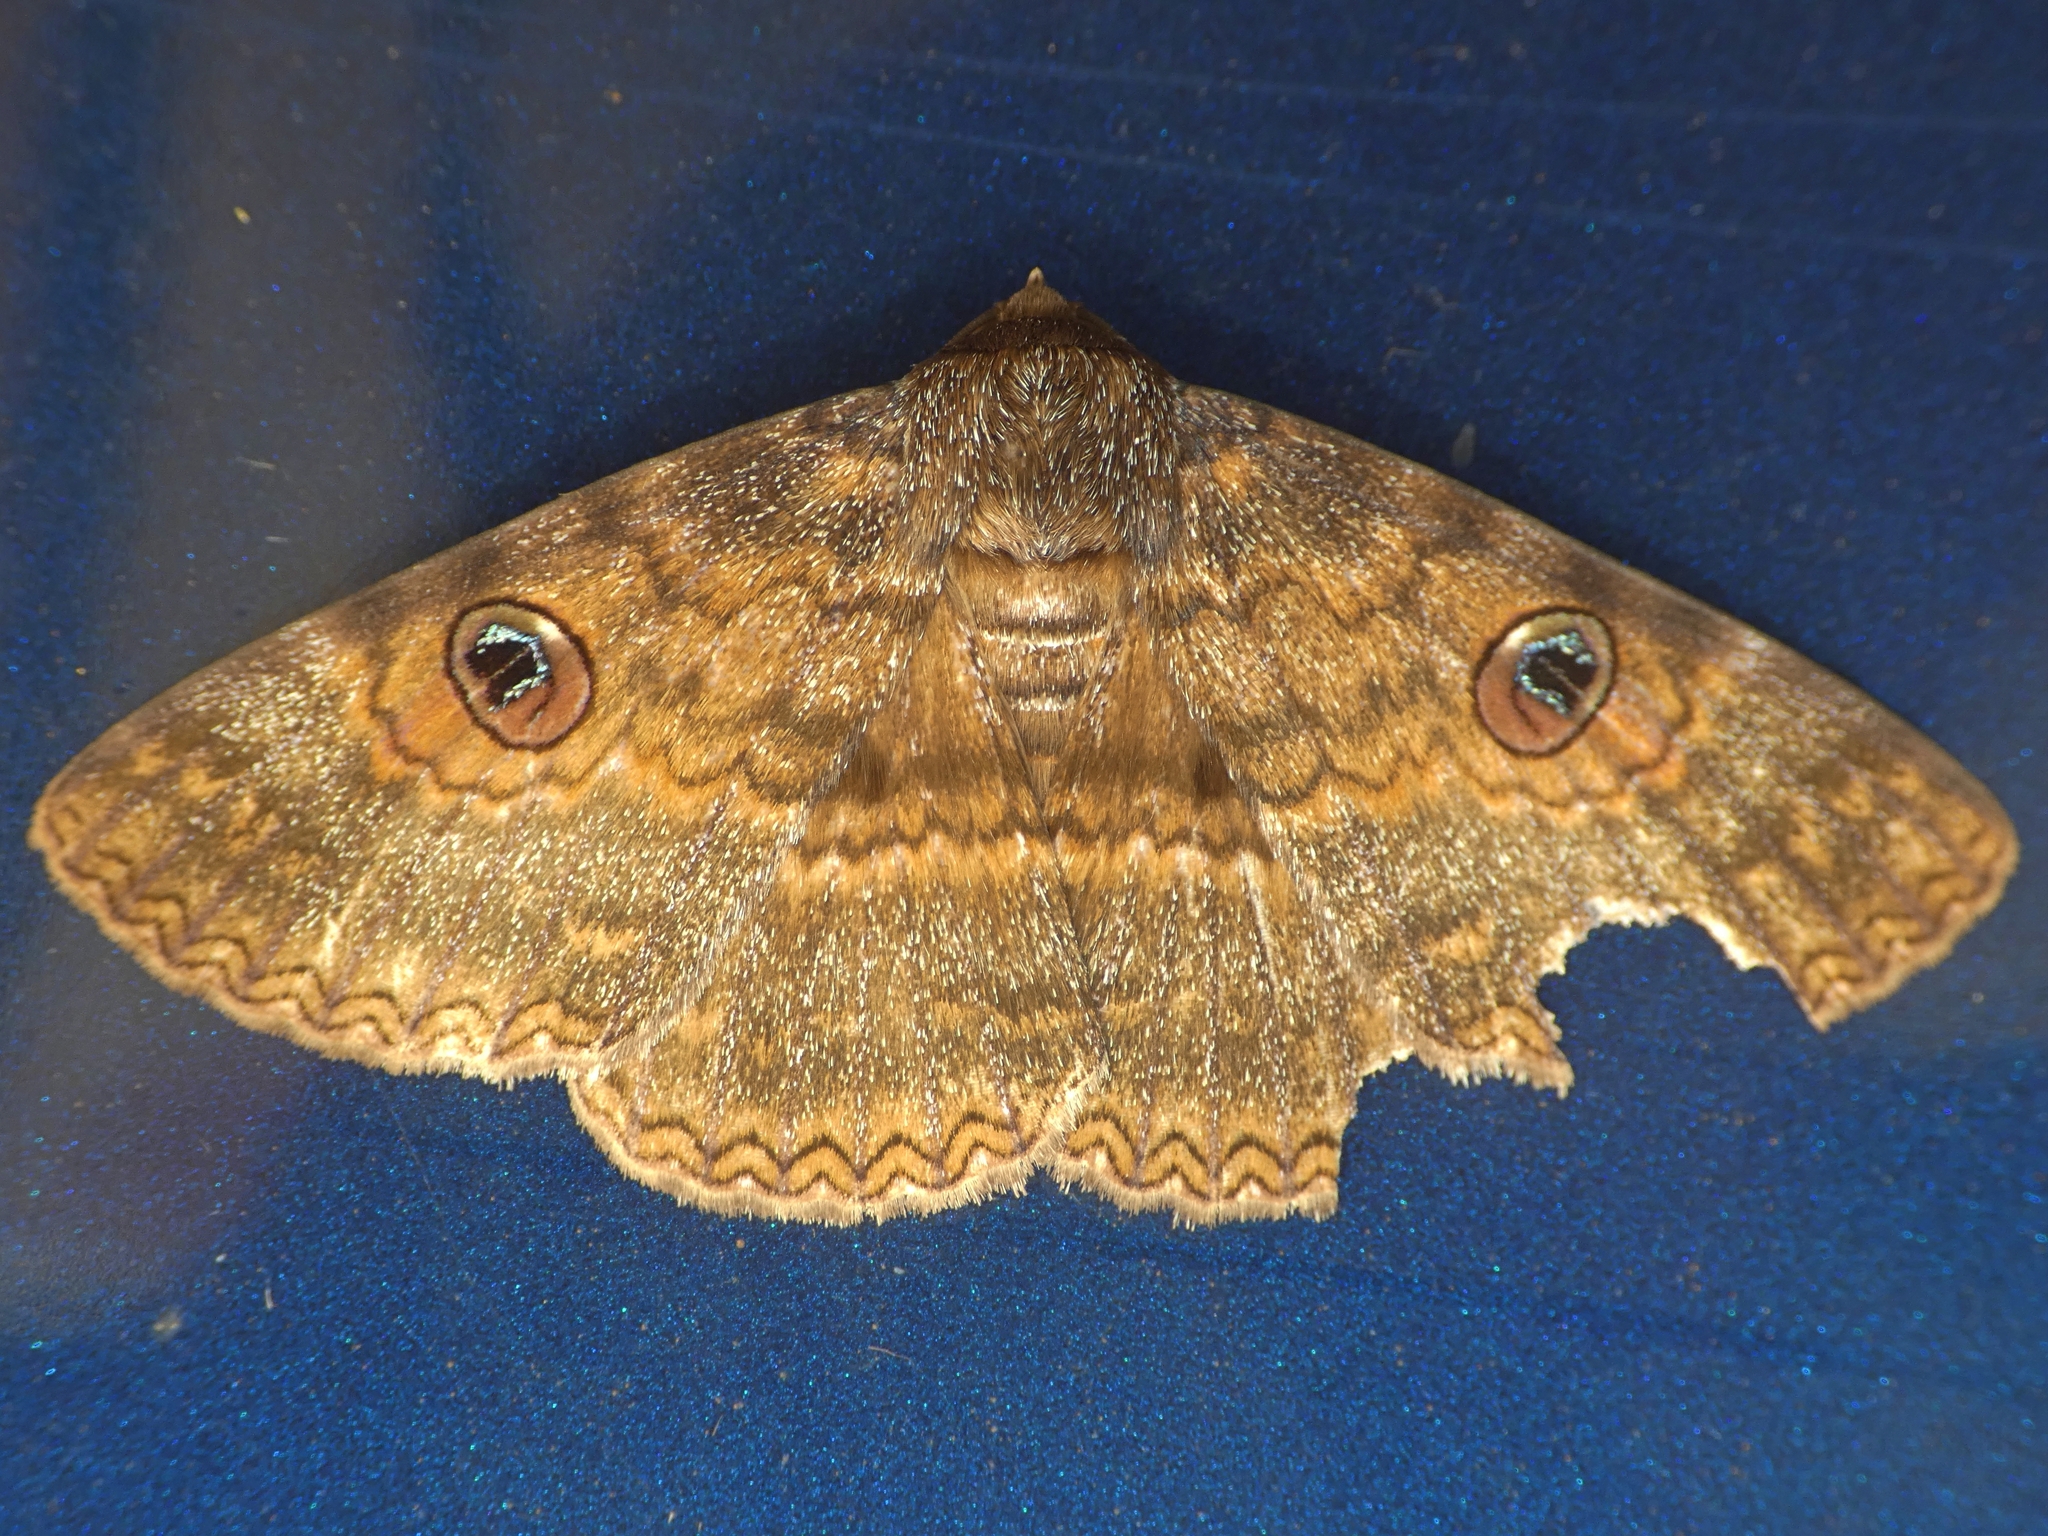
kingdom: Animalia
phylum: Arthropoda
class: Insecta
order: Lepidoptera
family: Erebidae
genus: Donuca
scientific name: Donuca castalia
